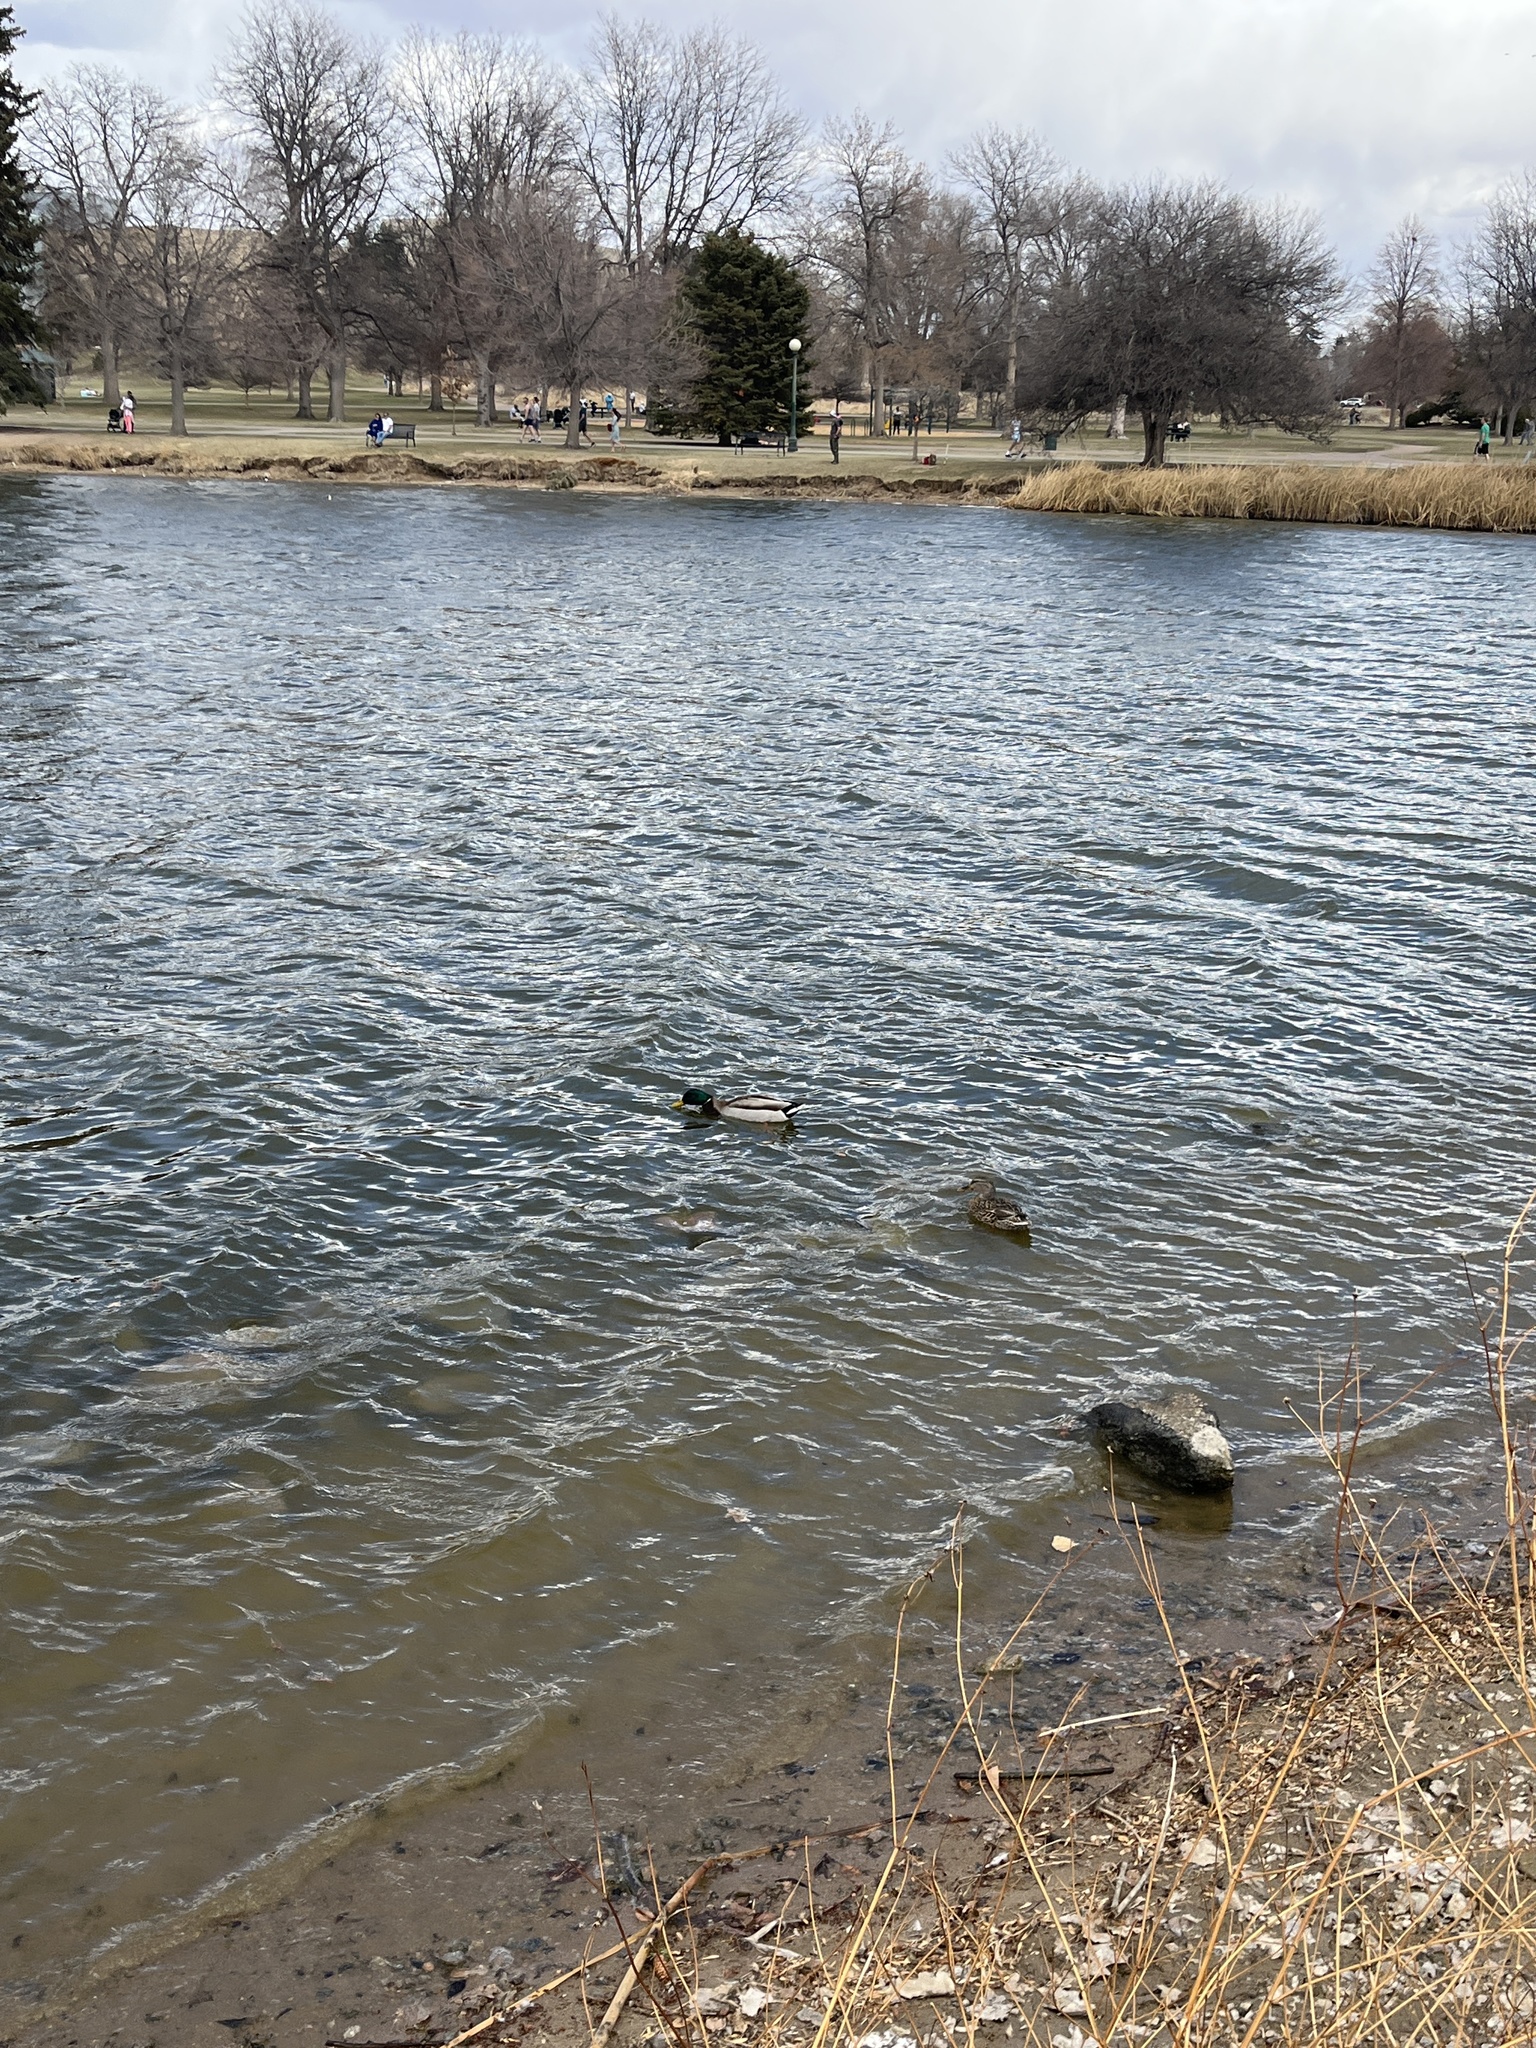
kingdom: Animalia
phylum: Chordata
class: Aves
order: Anseriformes
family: Anatidae
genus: Anas
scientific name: Anas platyrhynchos
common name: Mallard
